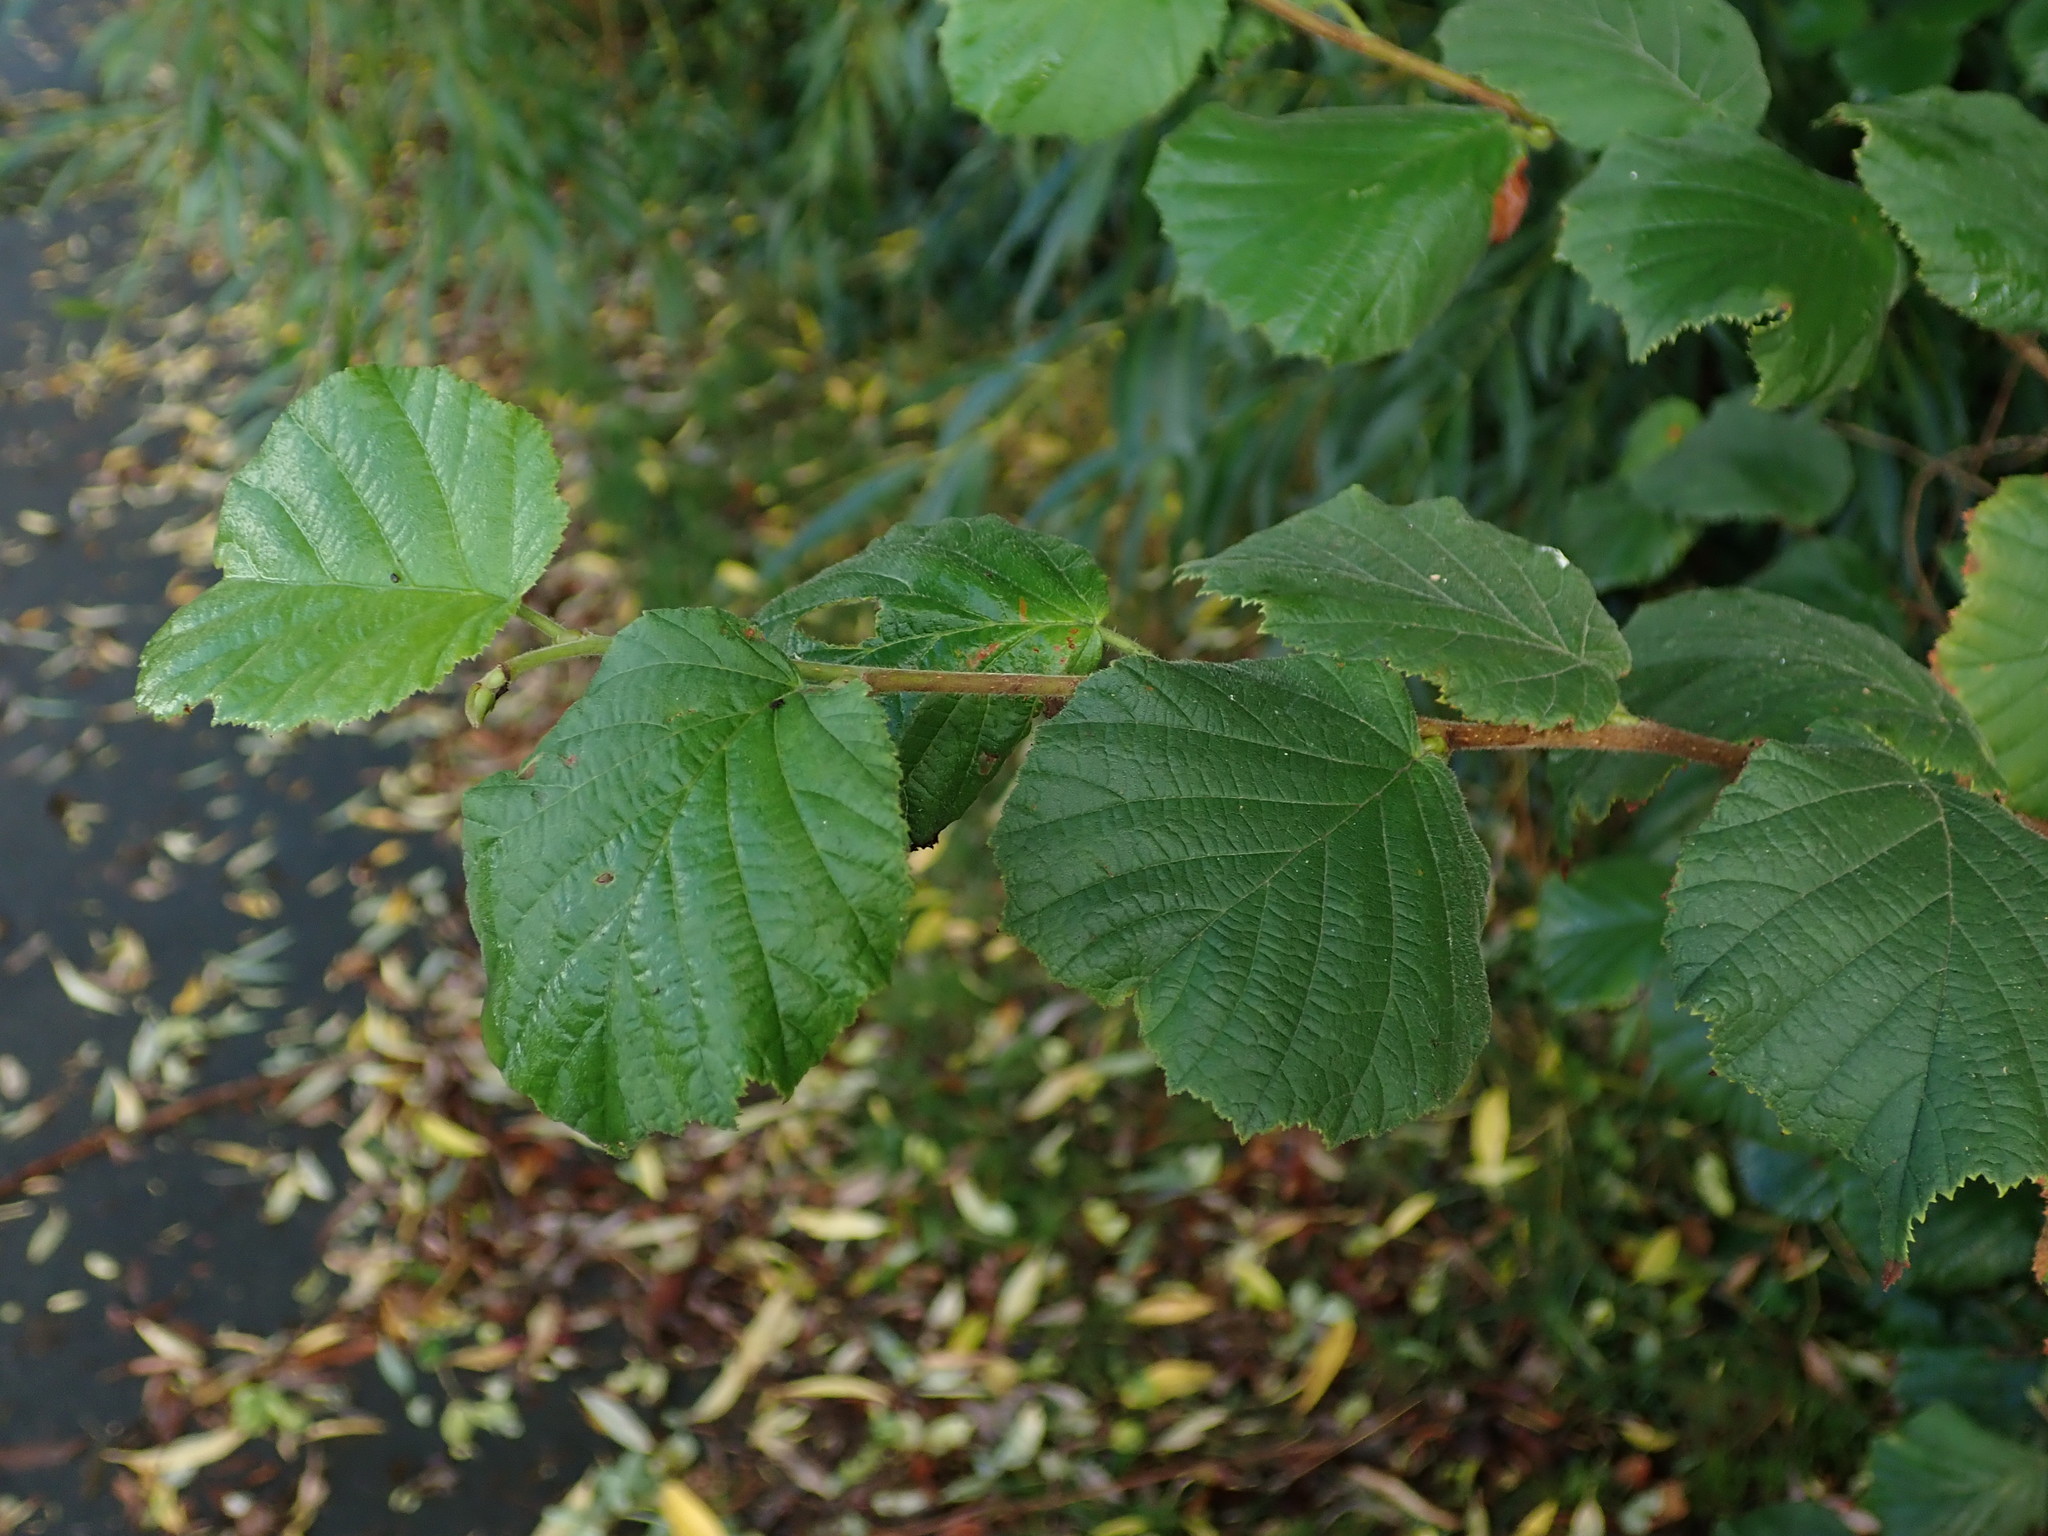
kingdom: Plantae
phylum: Tracheophyta
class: Magnoliopsida
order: Fagales
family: Betulaceae
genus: Corylus
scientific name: Corylus avellana
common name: European hazel
